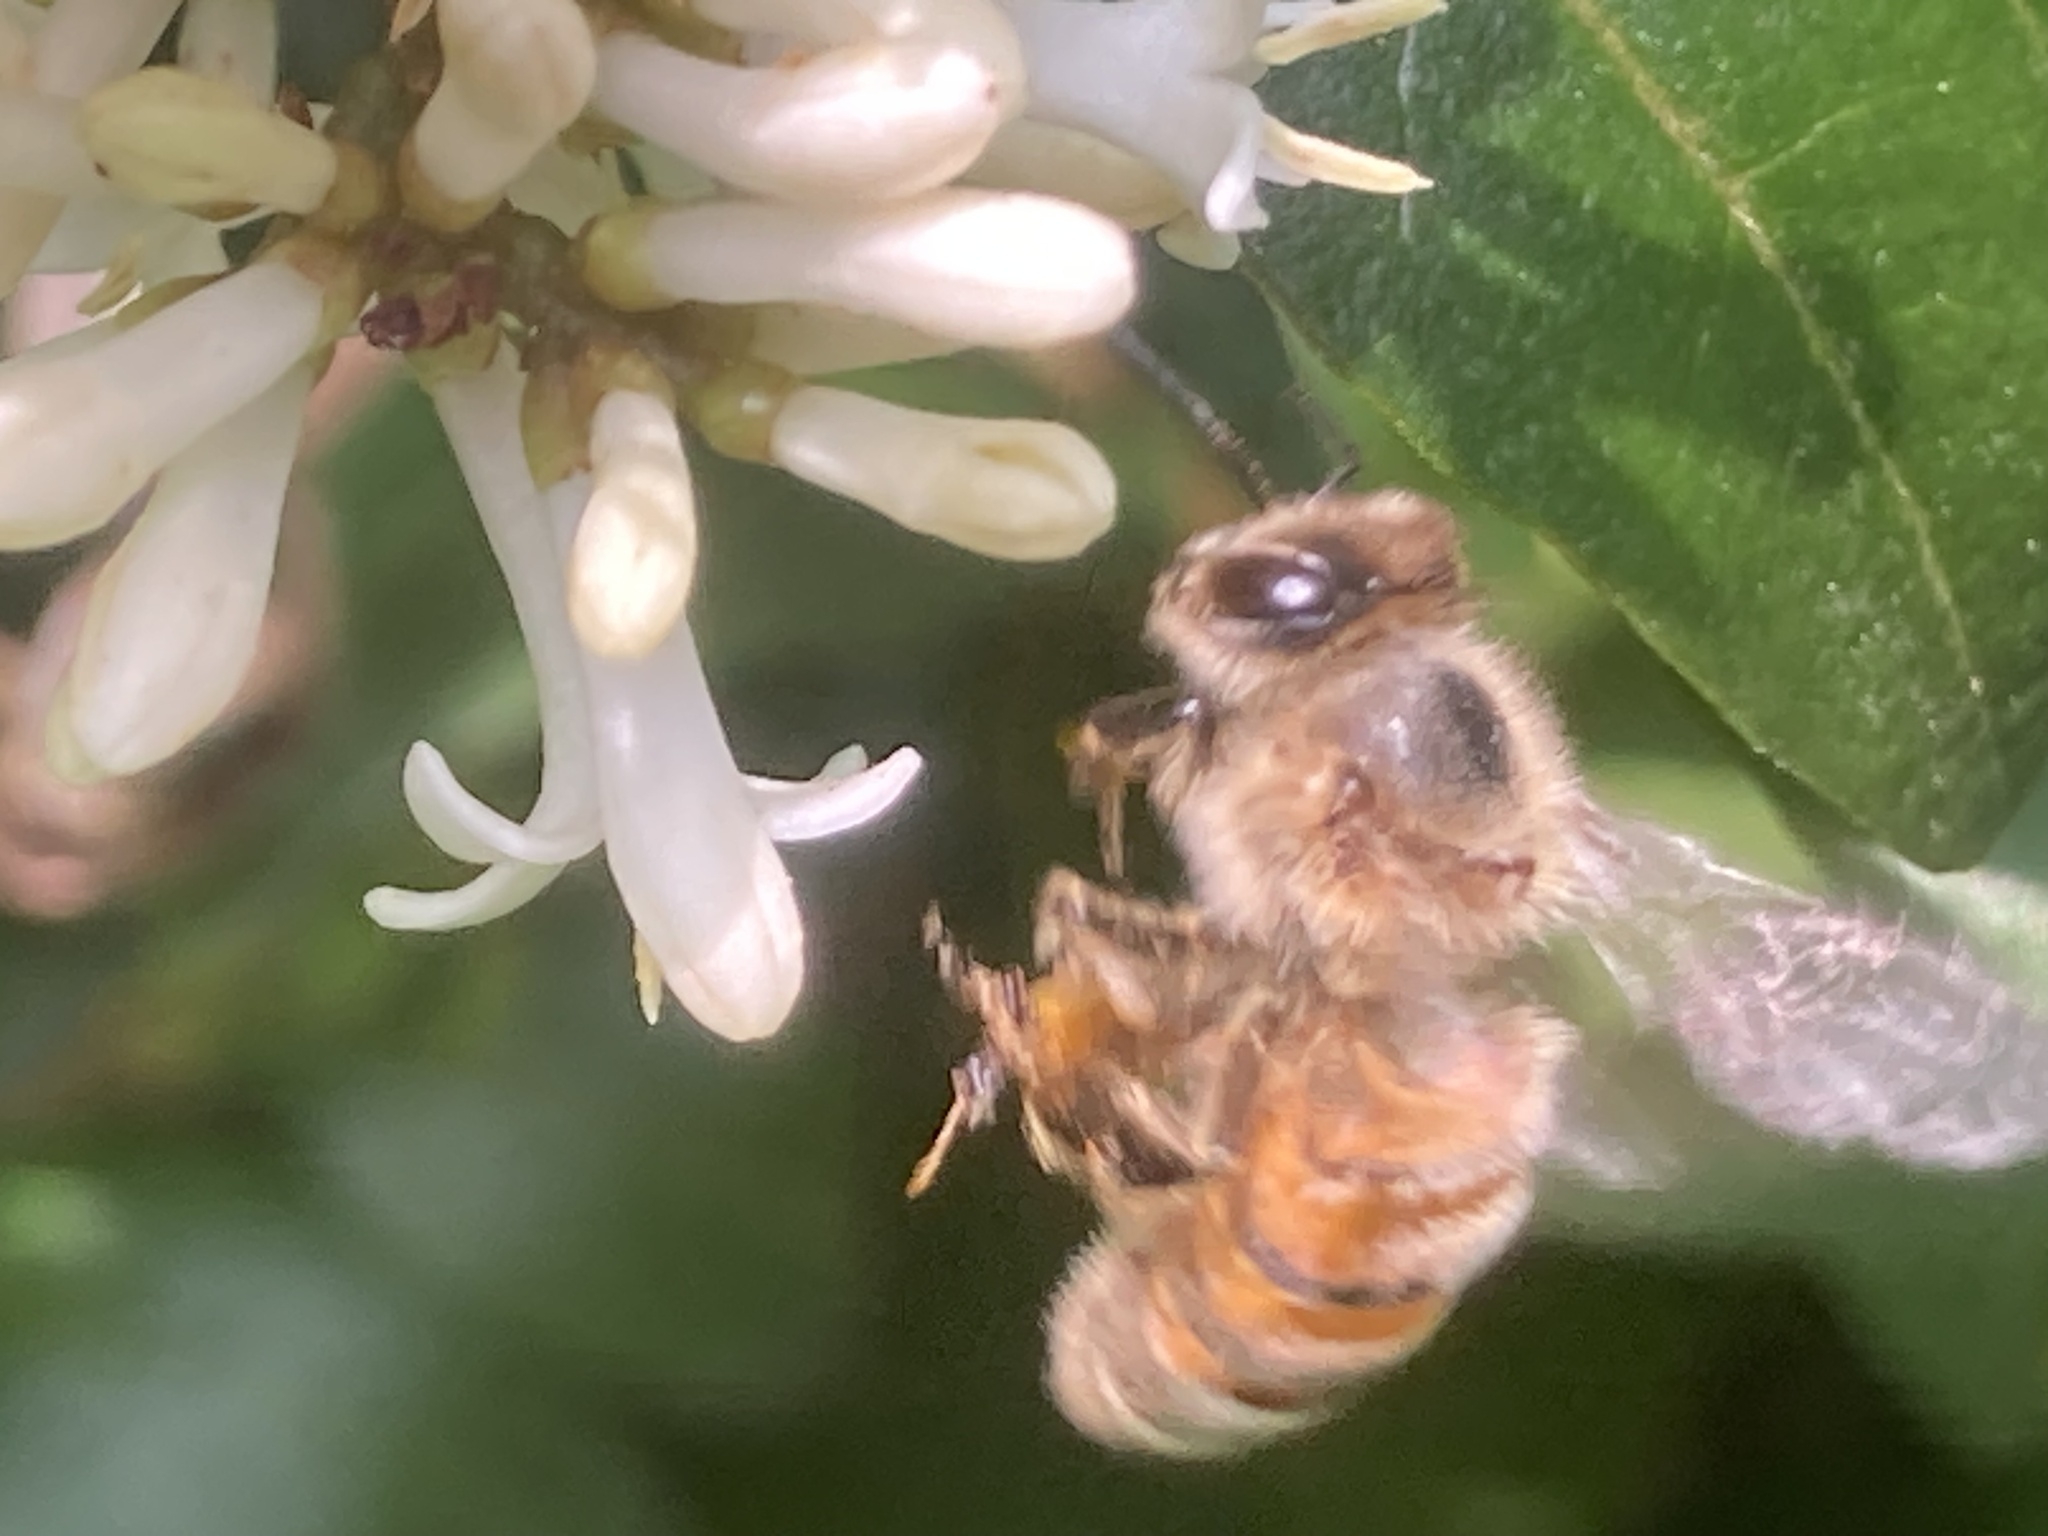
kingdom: Animalia
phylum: Arthropoda
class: Insecta
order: Hymenoptera
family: Apidae
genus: Apis
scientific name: Apis mellifera
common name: Honey bee
